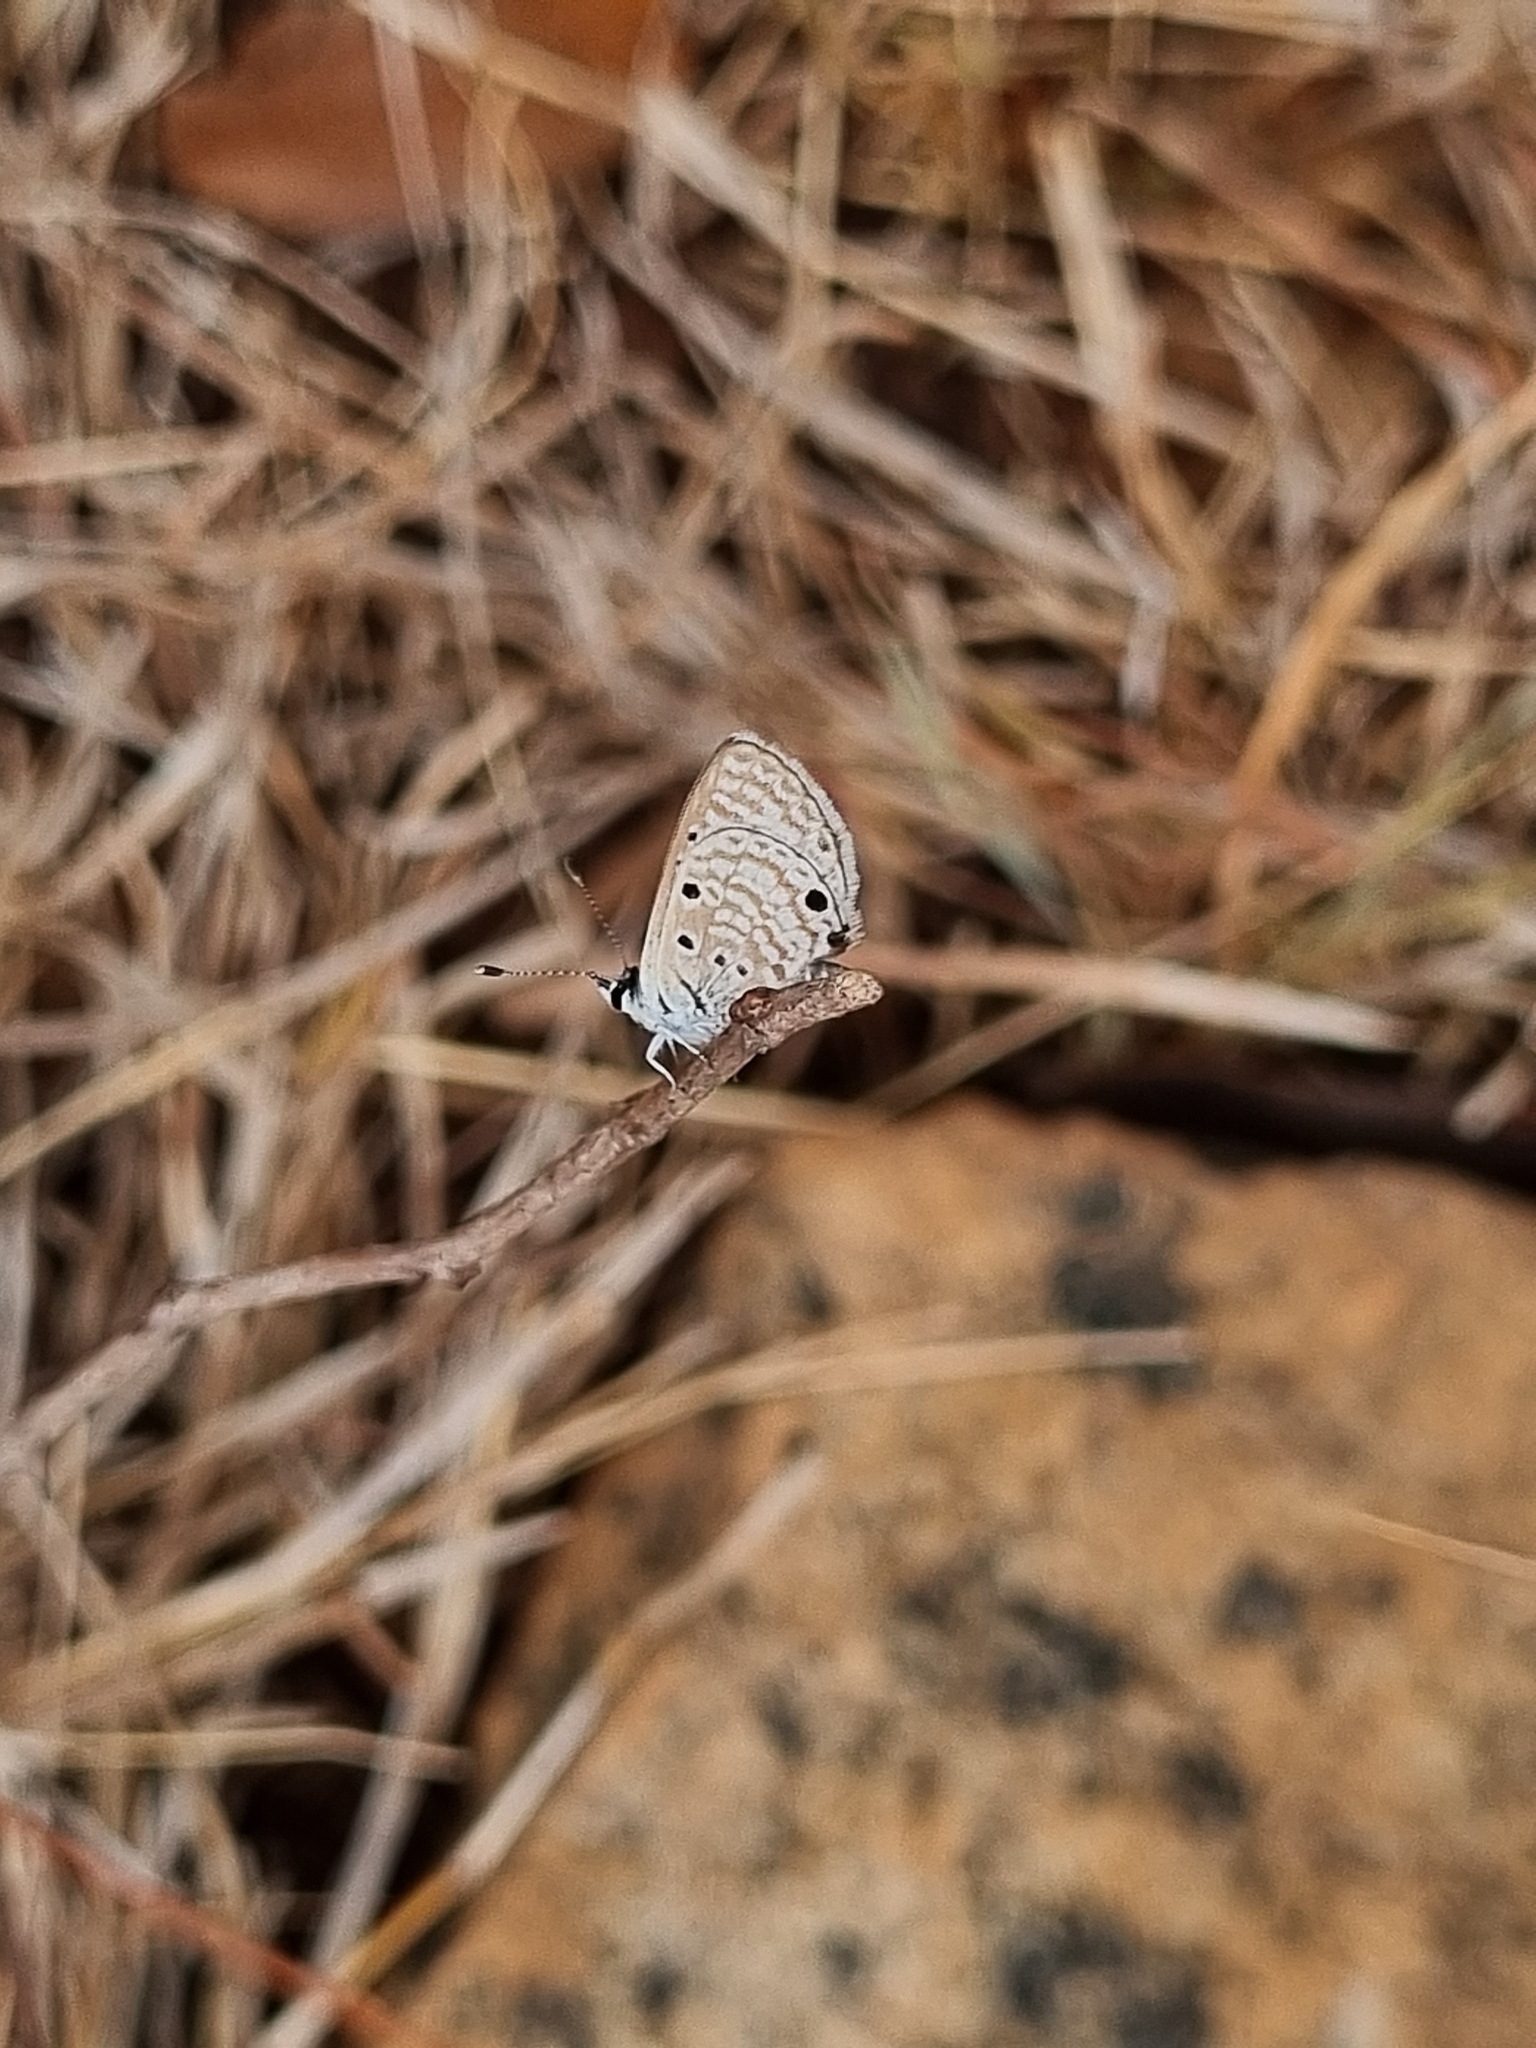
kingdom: Animalia
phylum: Arthropoda
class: Insecta
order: Lepidoptera
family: Lycaenidae
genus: Azanus
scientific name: Azanus ubaldus
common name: Desert babul blue
